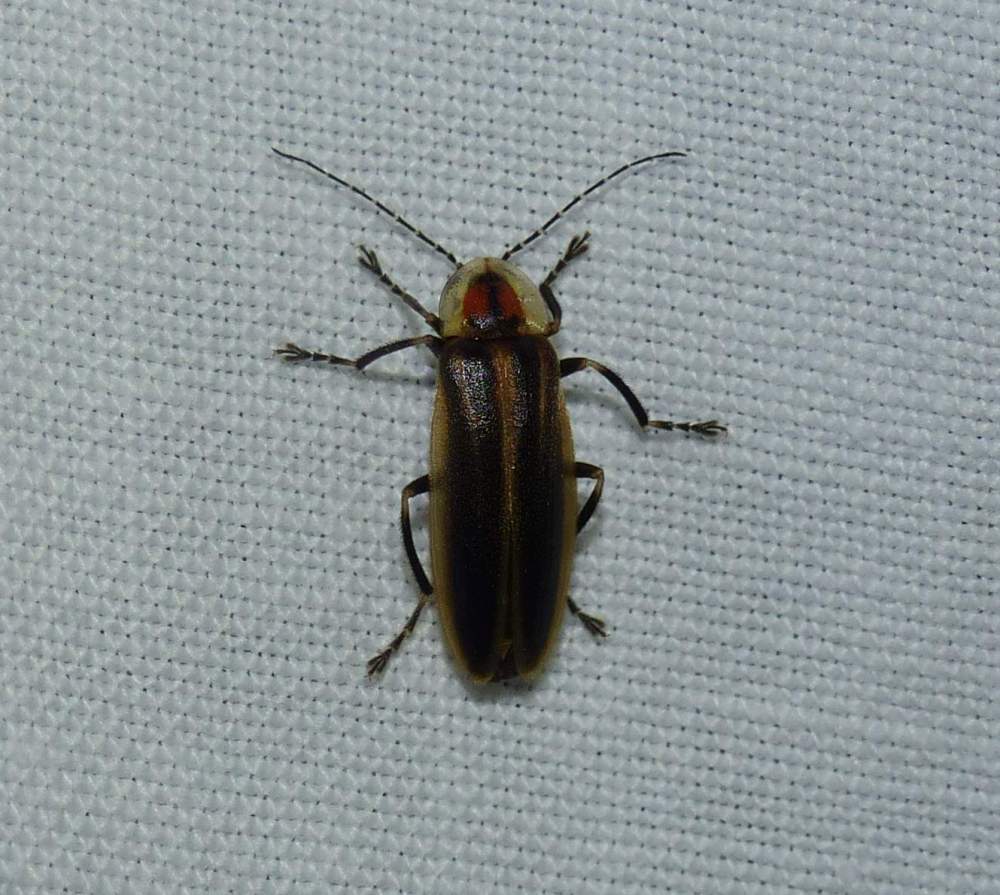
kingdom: Animalia
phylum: Arthropoda
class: Insecta
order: Coleoptera
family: Lampyridae
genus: Photuris
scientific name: Photuris
